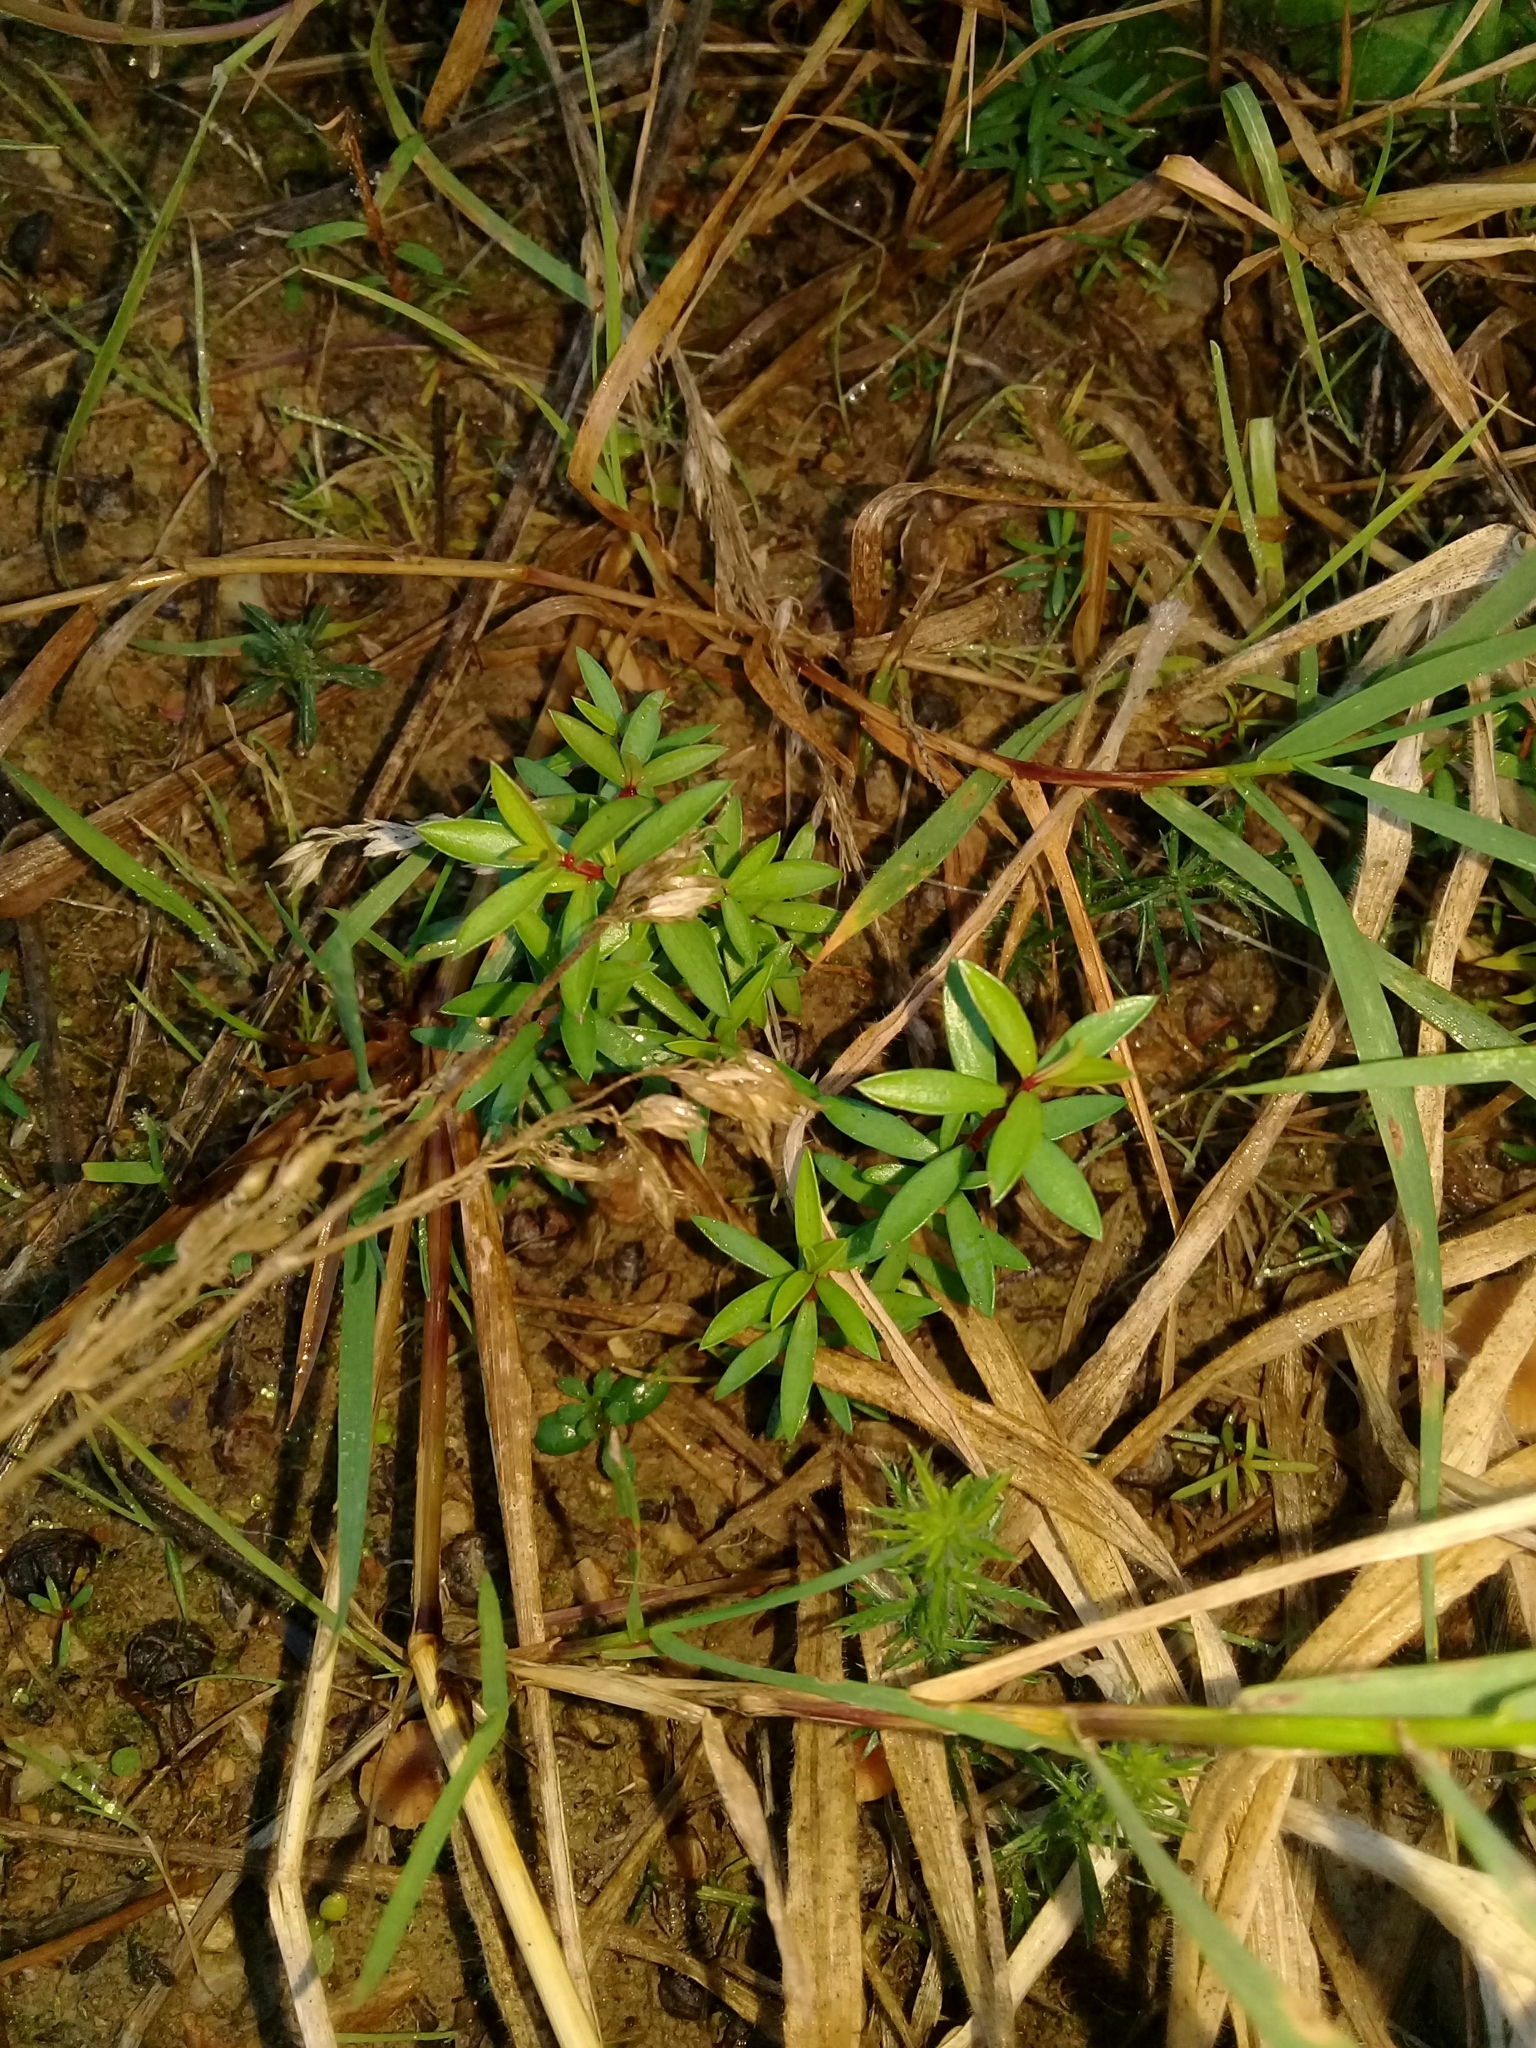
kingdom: Plantae
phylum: Tracheophyta
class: Magnoliopsida
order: Myrtales
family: Myrtaceae
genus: Leptospermum
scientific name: Leptospermum scoparium
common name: Broom tea-tree
